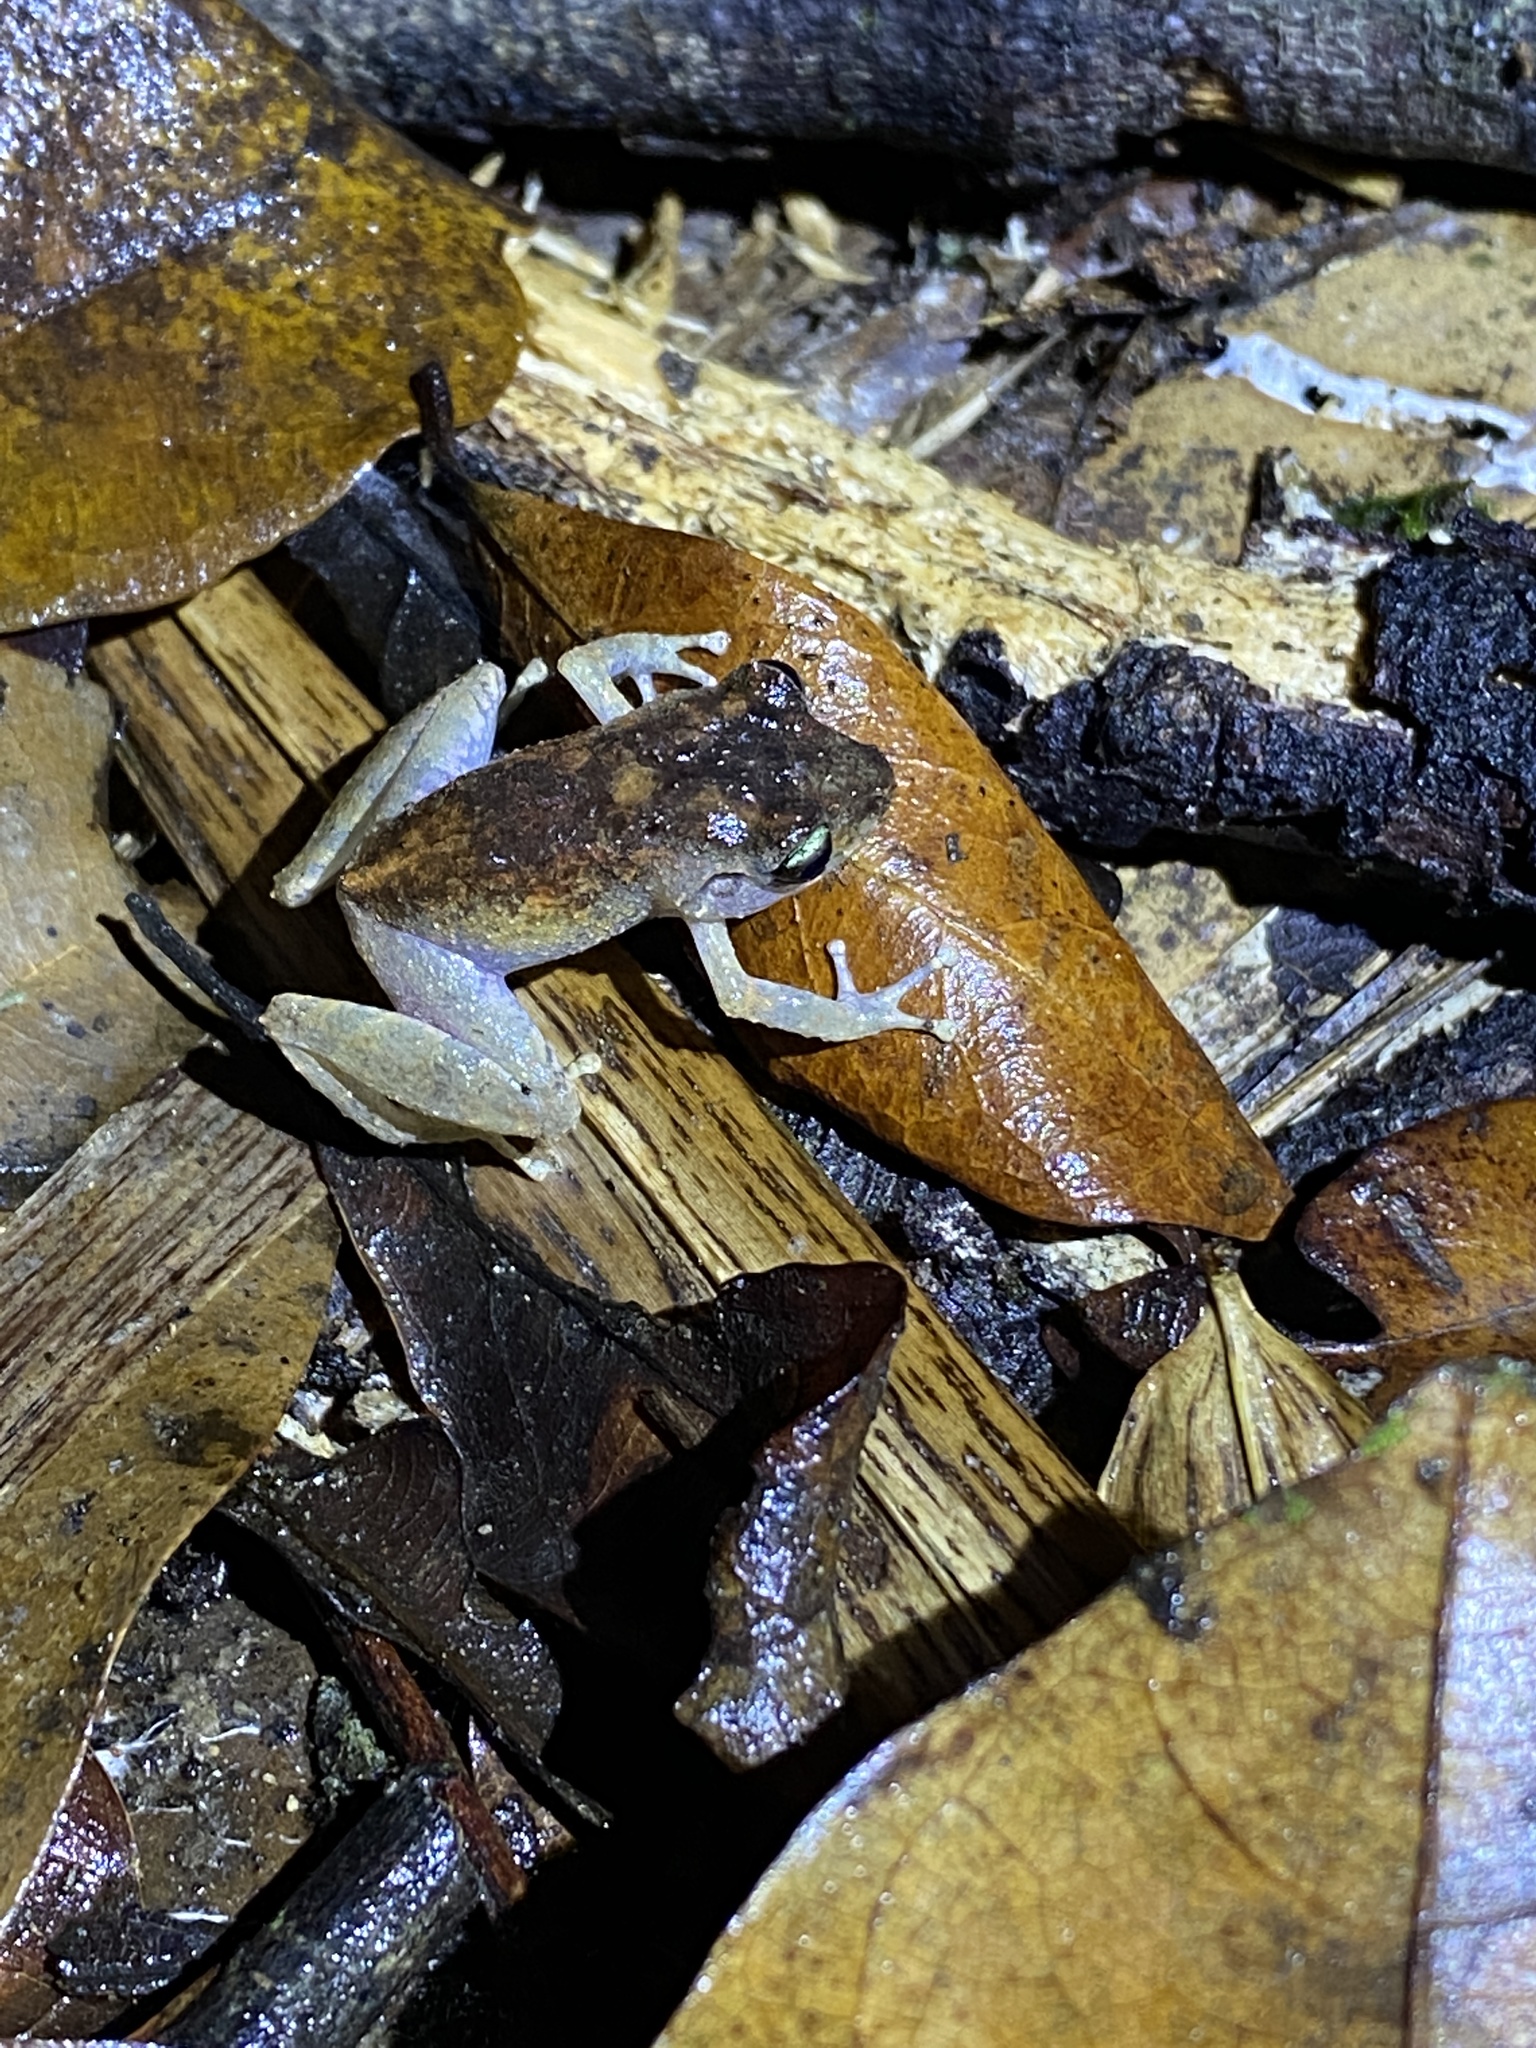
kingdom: Animalia
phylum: Chordata
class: Amphibia
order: Anura
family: Craugastoridae
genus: Pristimantis
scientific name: Pristimantis urichi
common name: Lesser antilles robber frog
